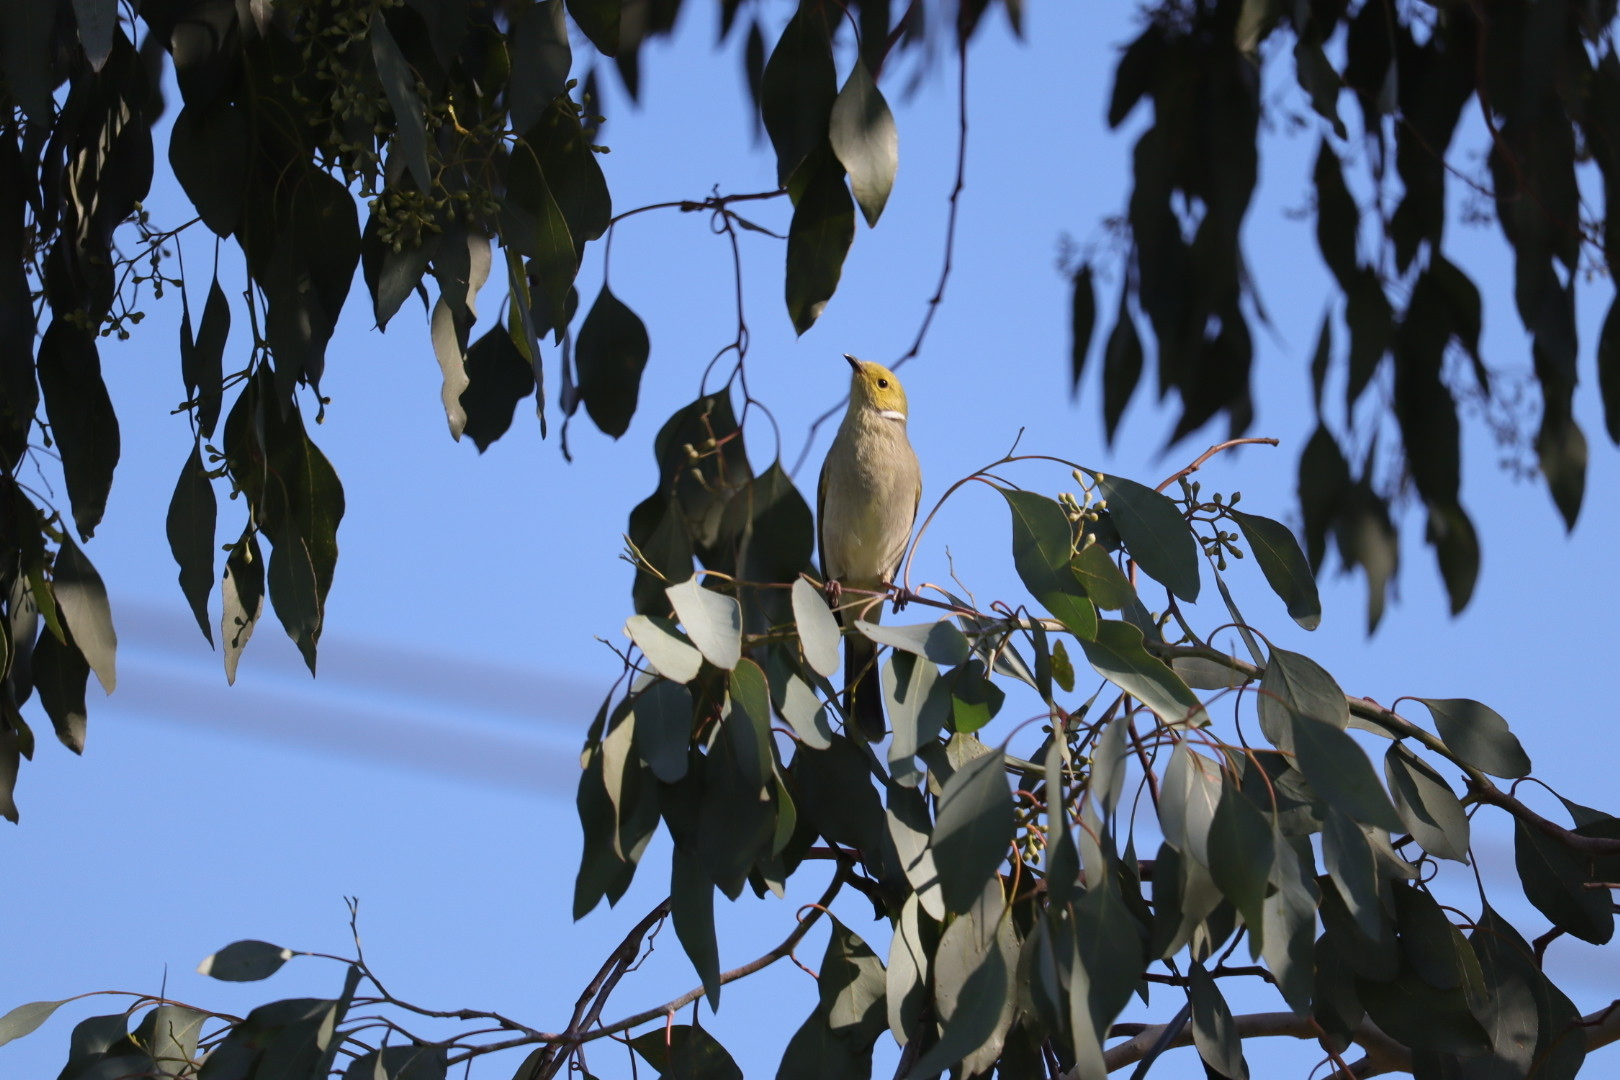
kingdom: Animalia
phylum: Chordata
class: Aves
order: Passeriformes
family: Meliphagidae
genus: Ptilotula
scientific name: Ptilotula penicillata
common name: White-plumed honeyeater
